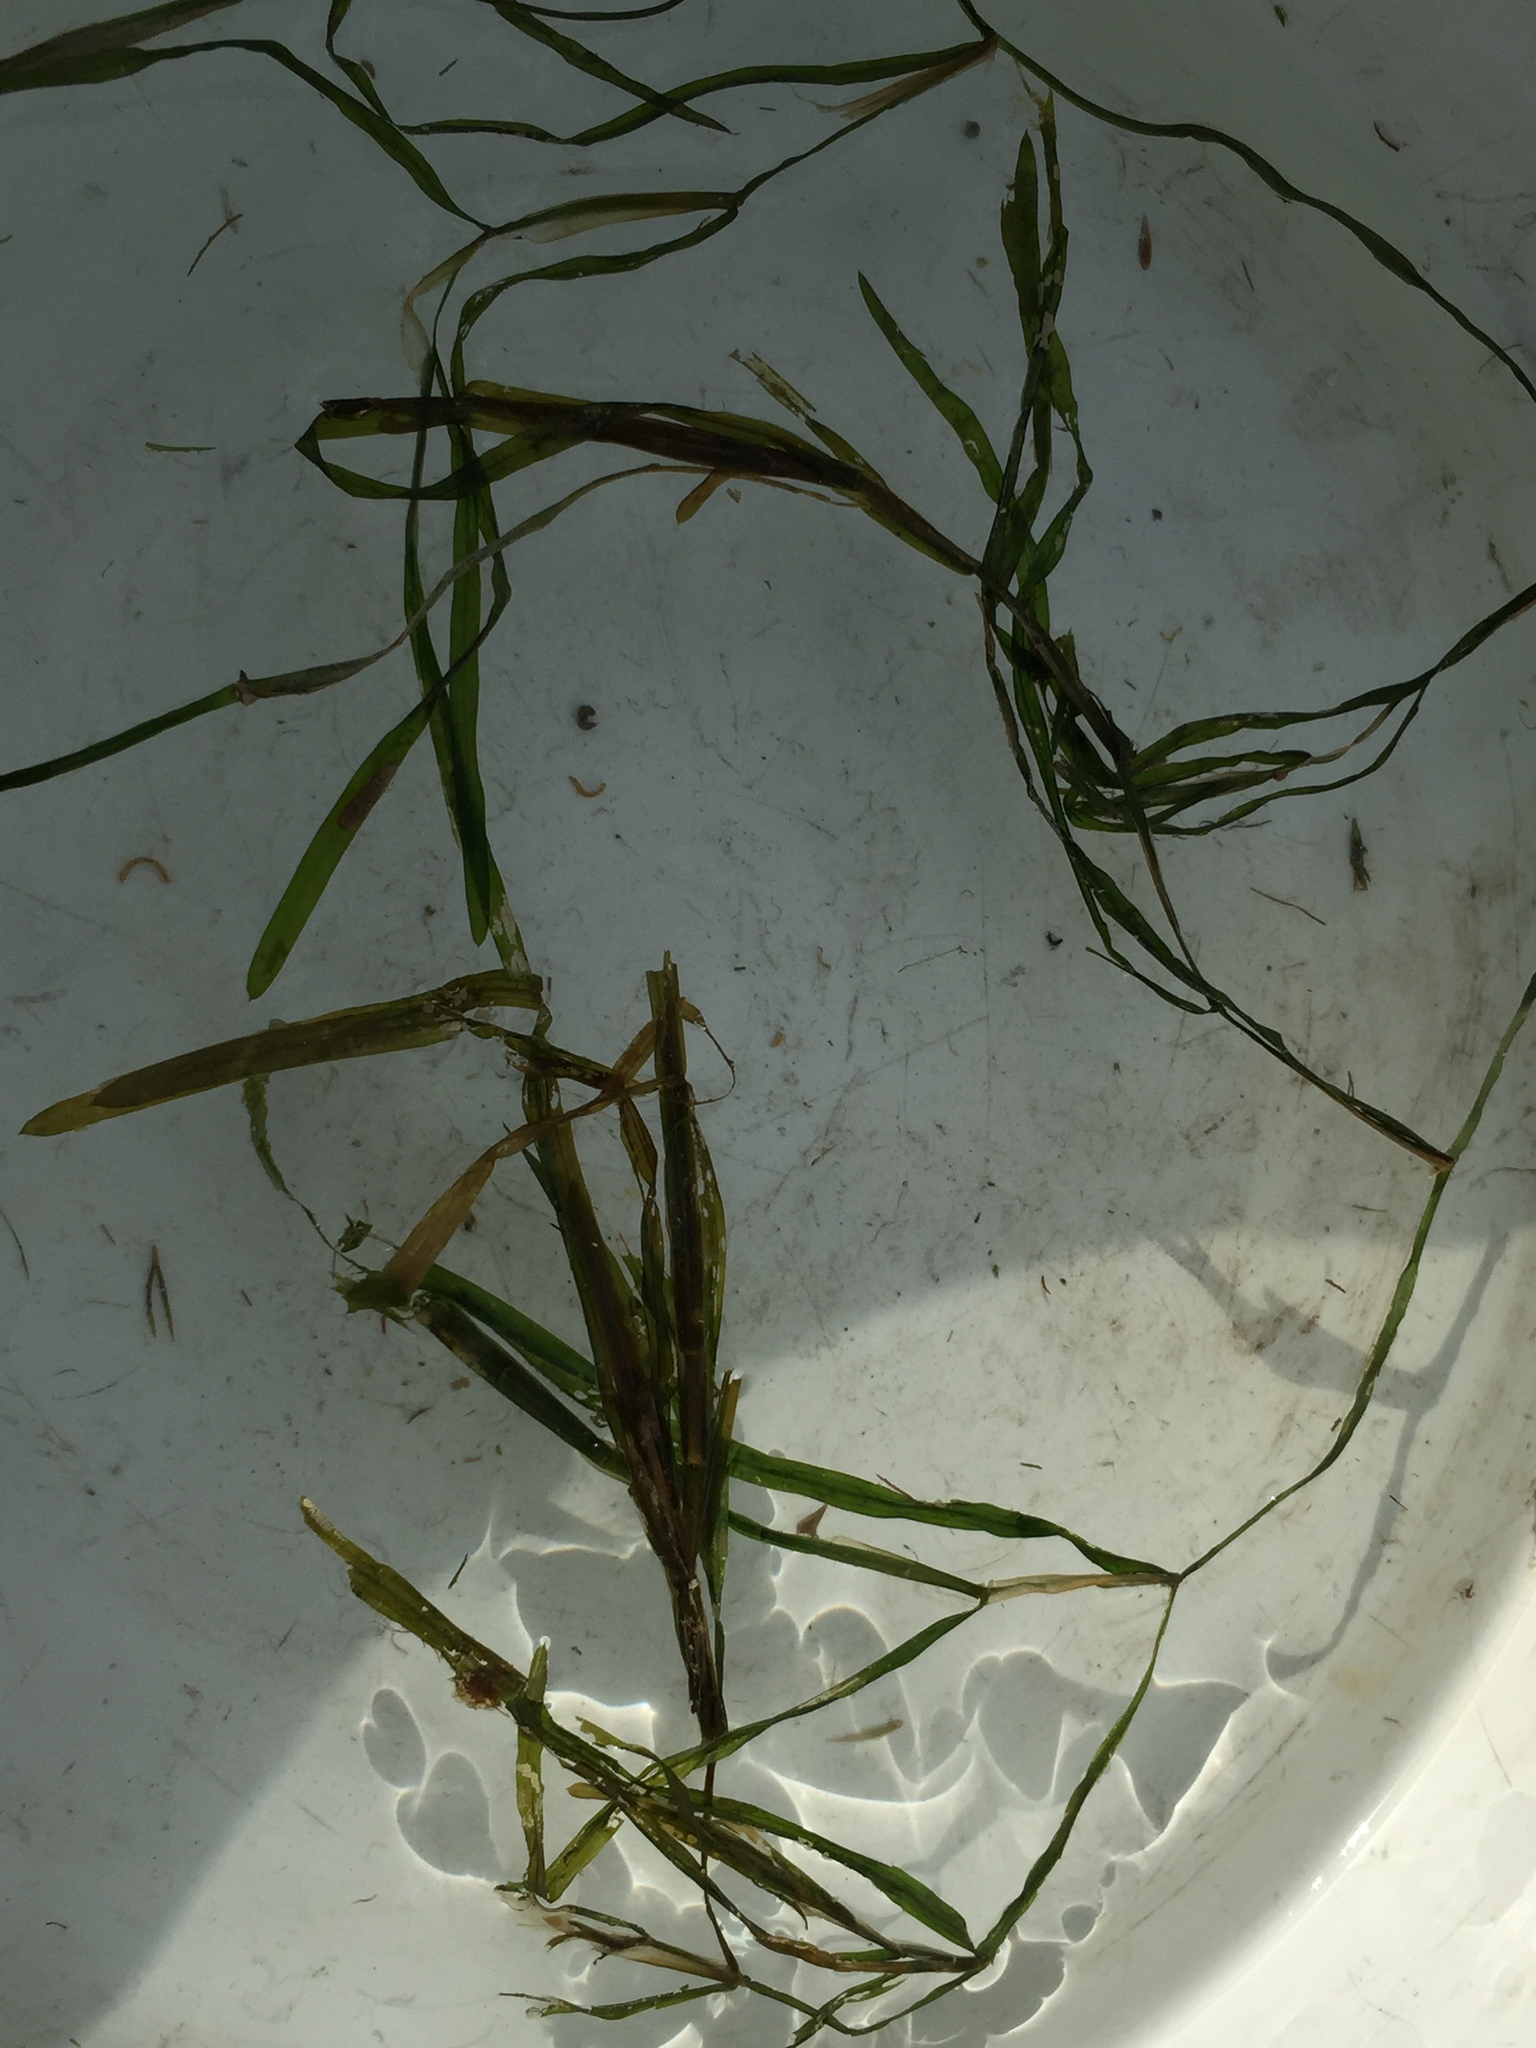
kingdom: Plantae
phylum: Tracheophyta
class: Liliopsida
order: Alismatales
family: Potamogetonaceae
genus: Potamogeton
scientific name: Potamogeton zosteriformis
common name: Eelgrass pondweed
